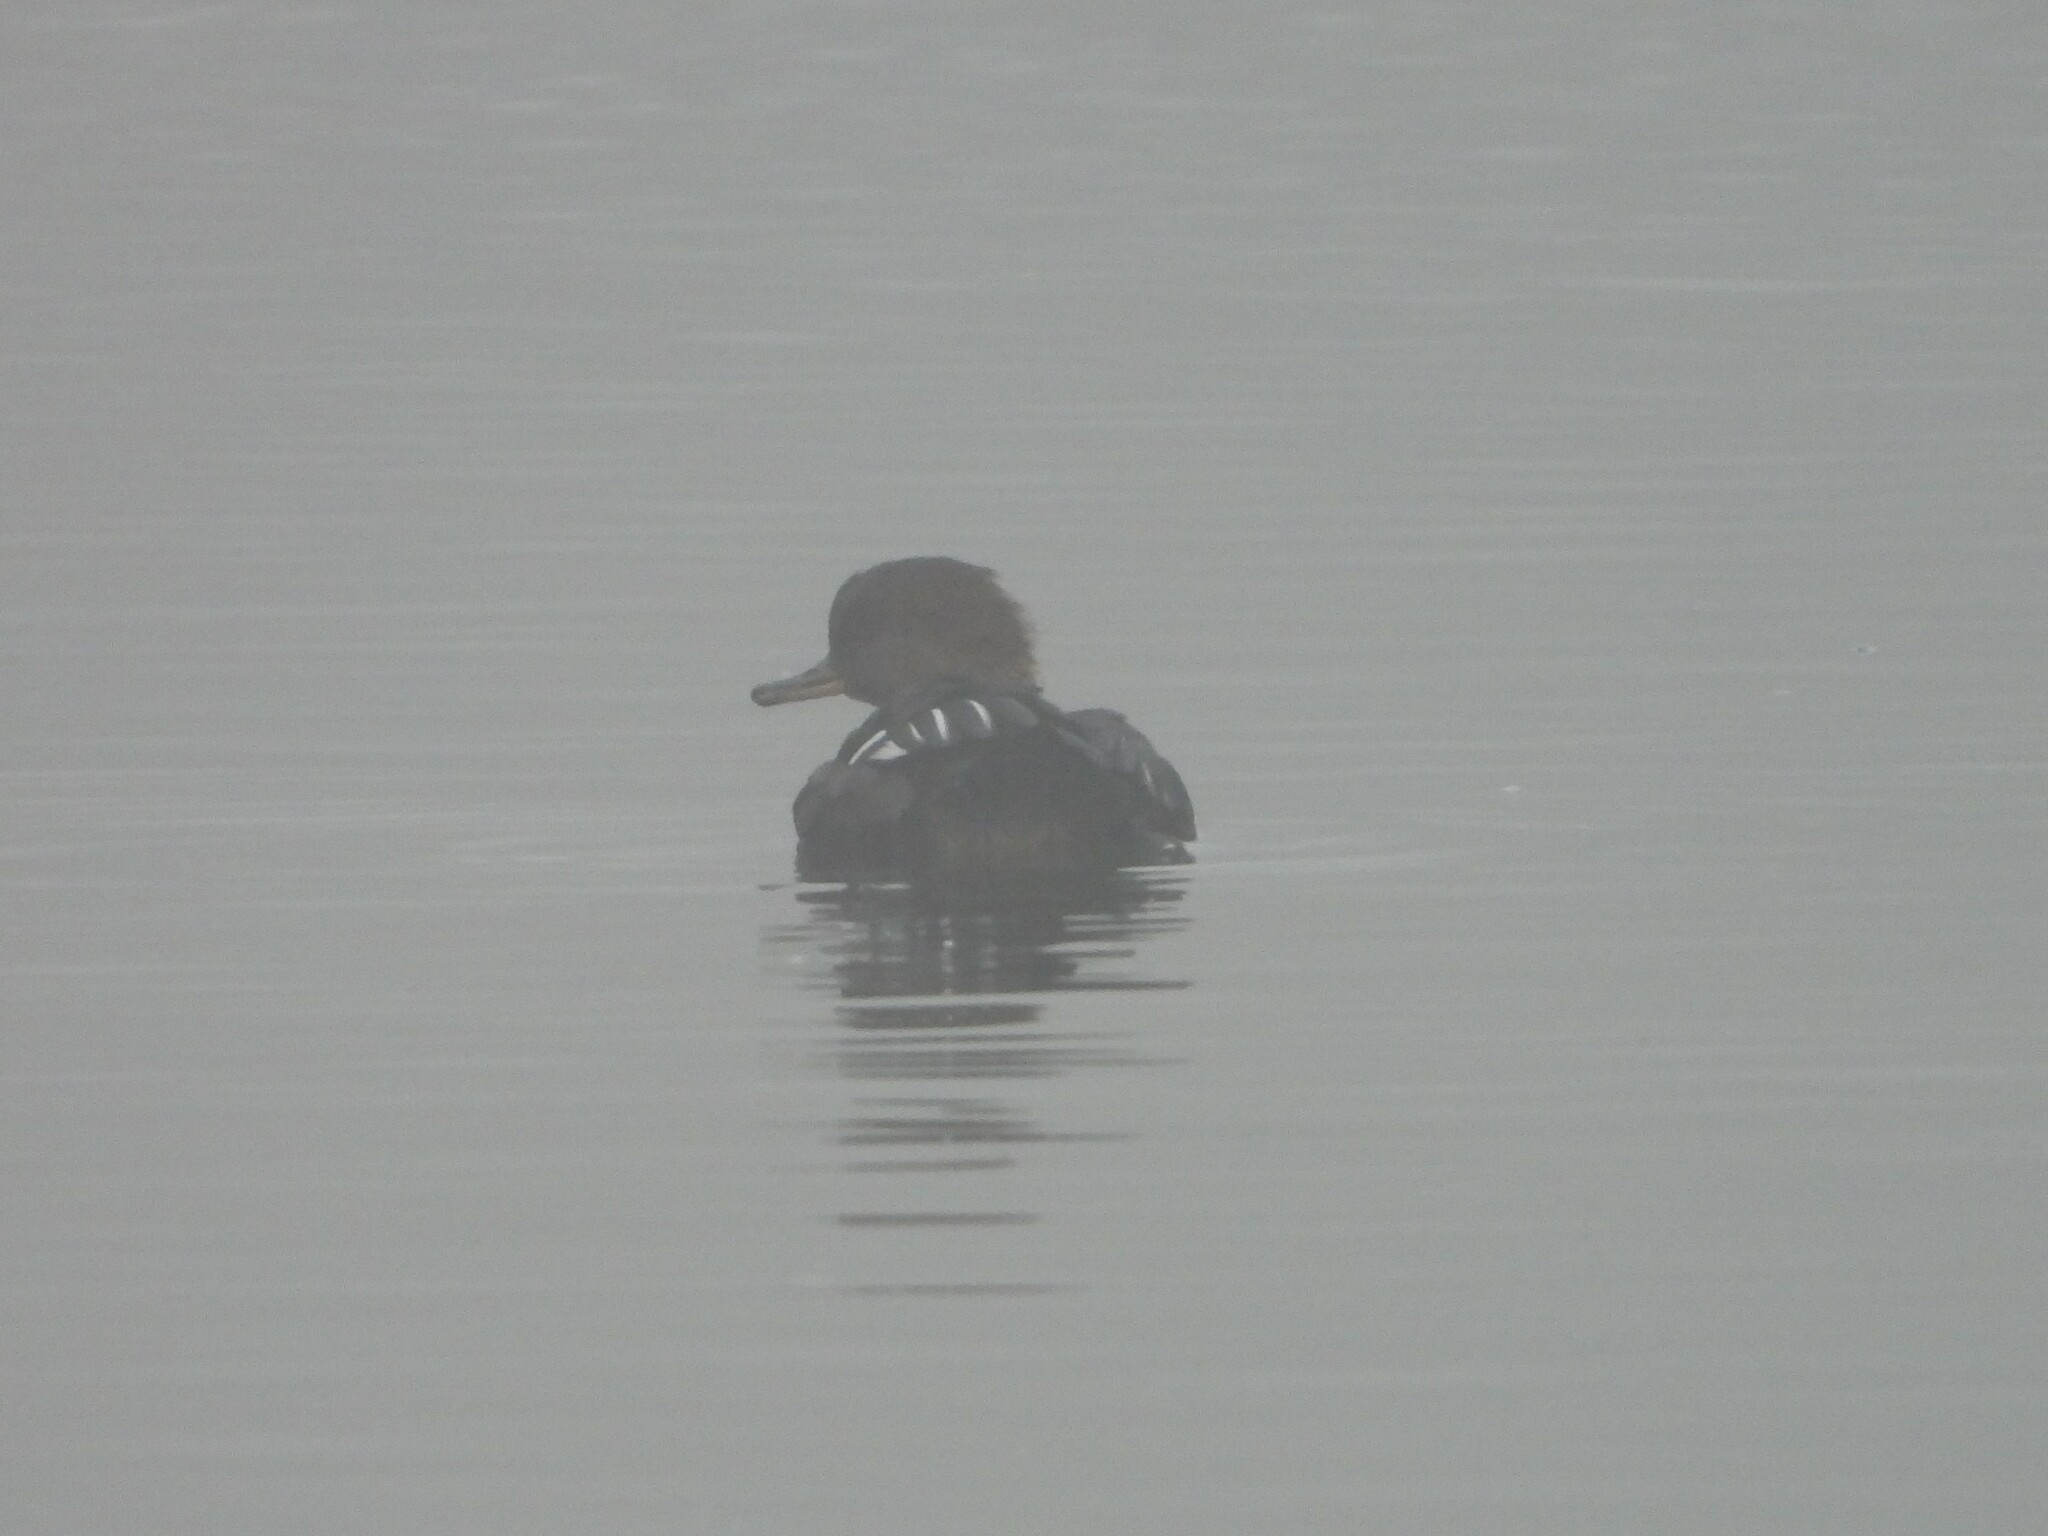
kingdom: Animalia
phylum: Chordata
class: Aves
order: Anseriformes
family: Anatidae
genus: Lophodytes
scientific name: Lophodytes cucullatus
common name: Hooded merganser
